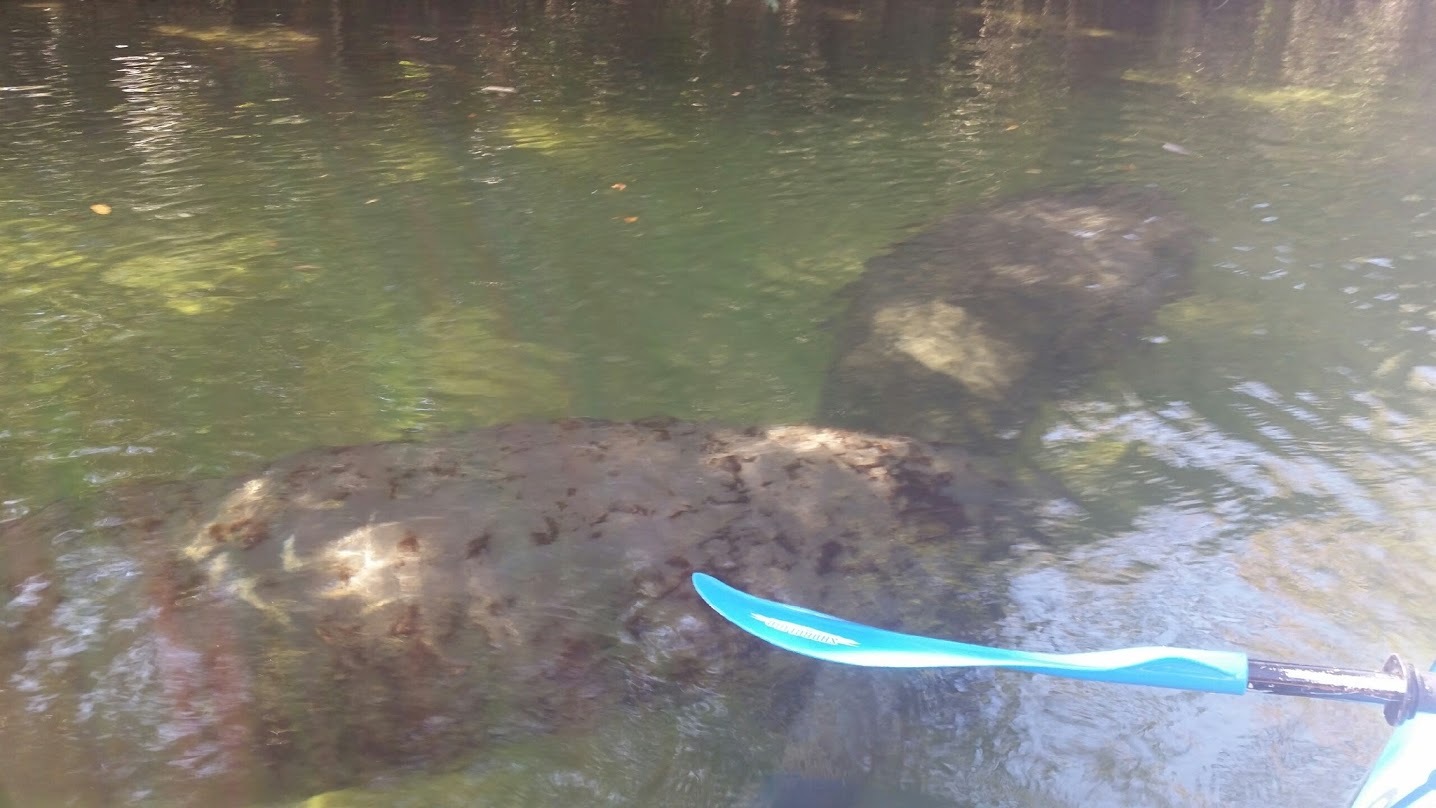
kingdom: Animalia
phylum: Chordata
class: Mammalia
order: Sirenia
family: Trichechidae
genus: Trichechus
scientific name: Trichechus manatus
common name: West indian manatee
